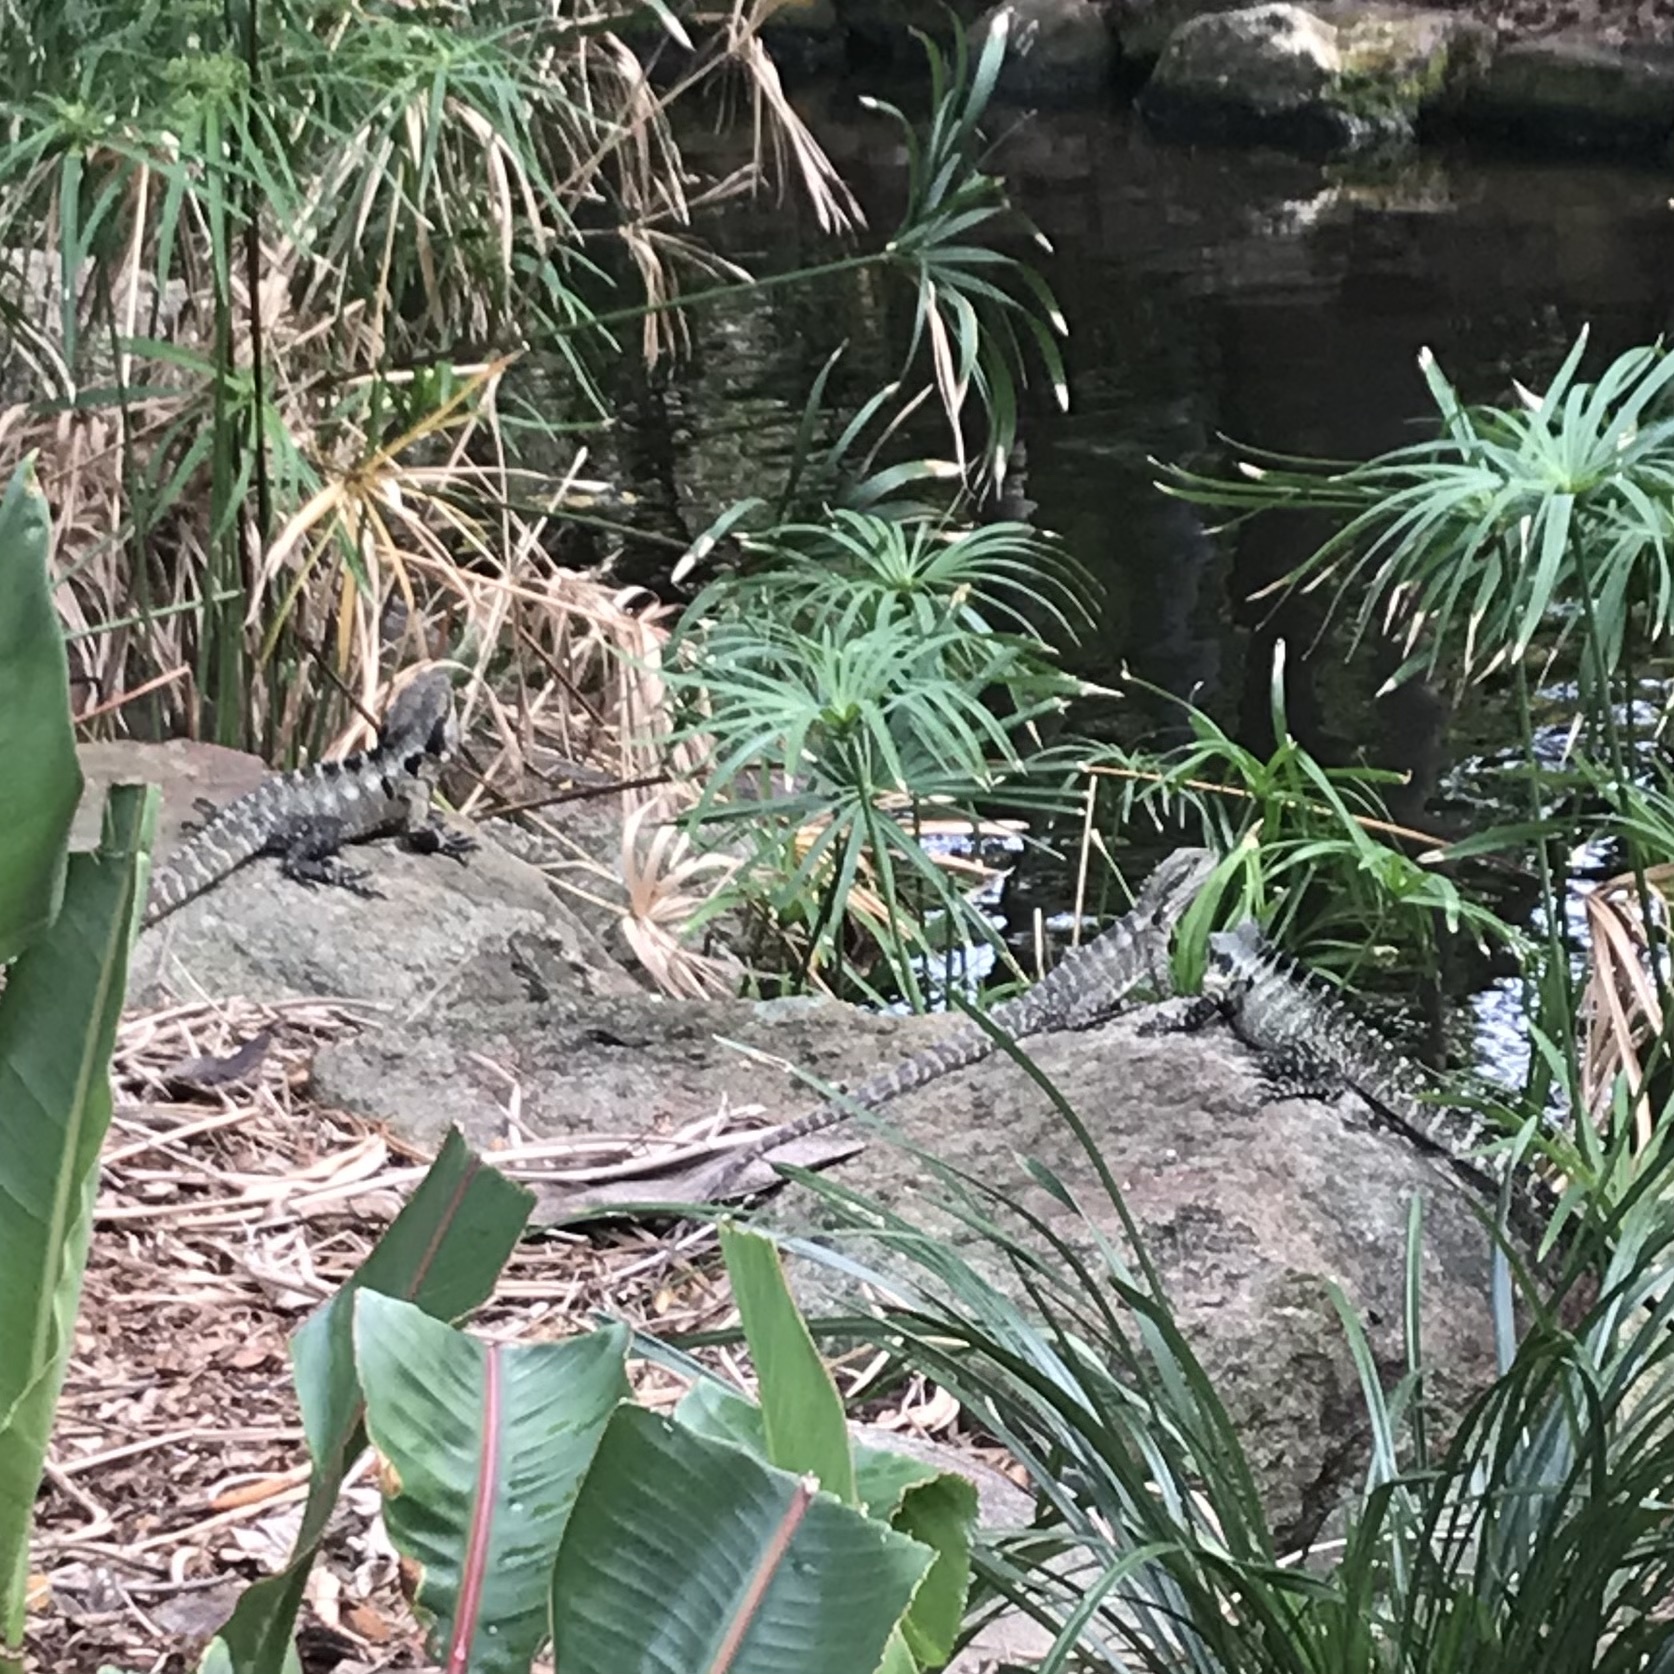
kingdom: Animalia
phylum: Chordata
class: Squamata
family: Agamidae
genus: Intellagama
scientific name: Intellagama lesueurii
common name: Eastern water dragon
